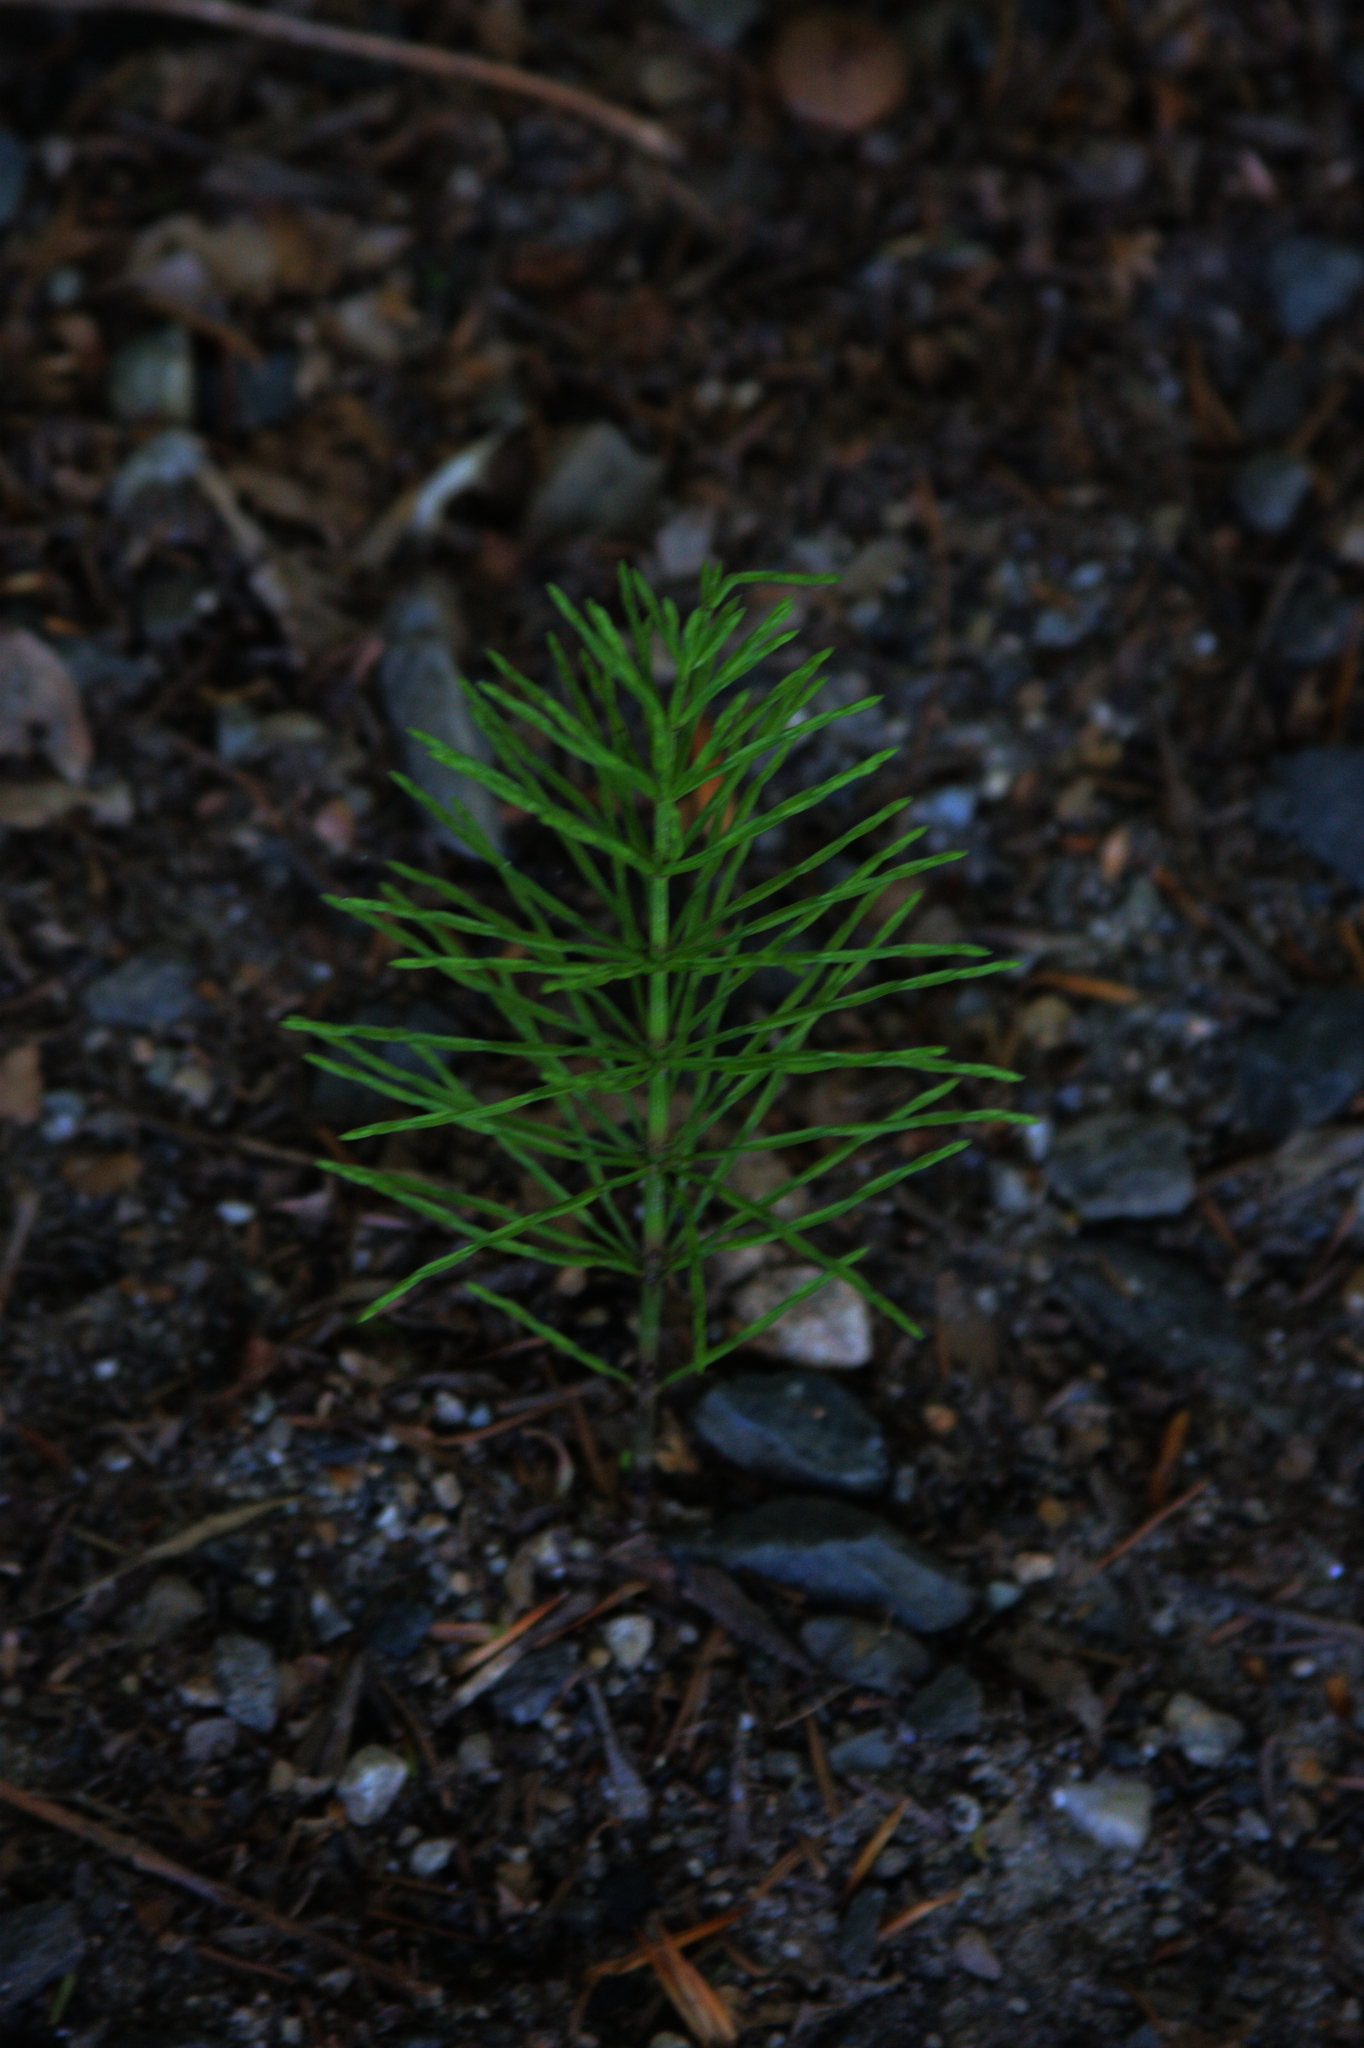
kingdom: Plantae
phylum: Tracheophyta
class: Polypodiopsida
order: Equisetales
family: Equisetaceae
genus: Equisetum
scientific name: Equisetum arvense
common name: Field horsetail
